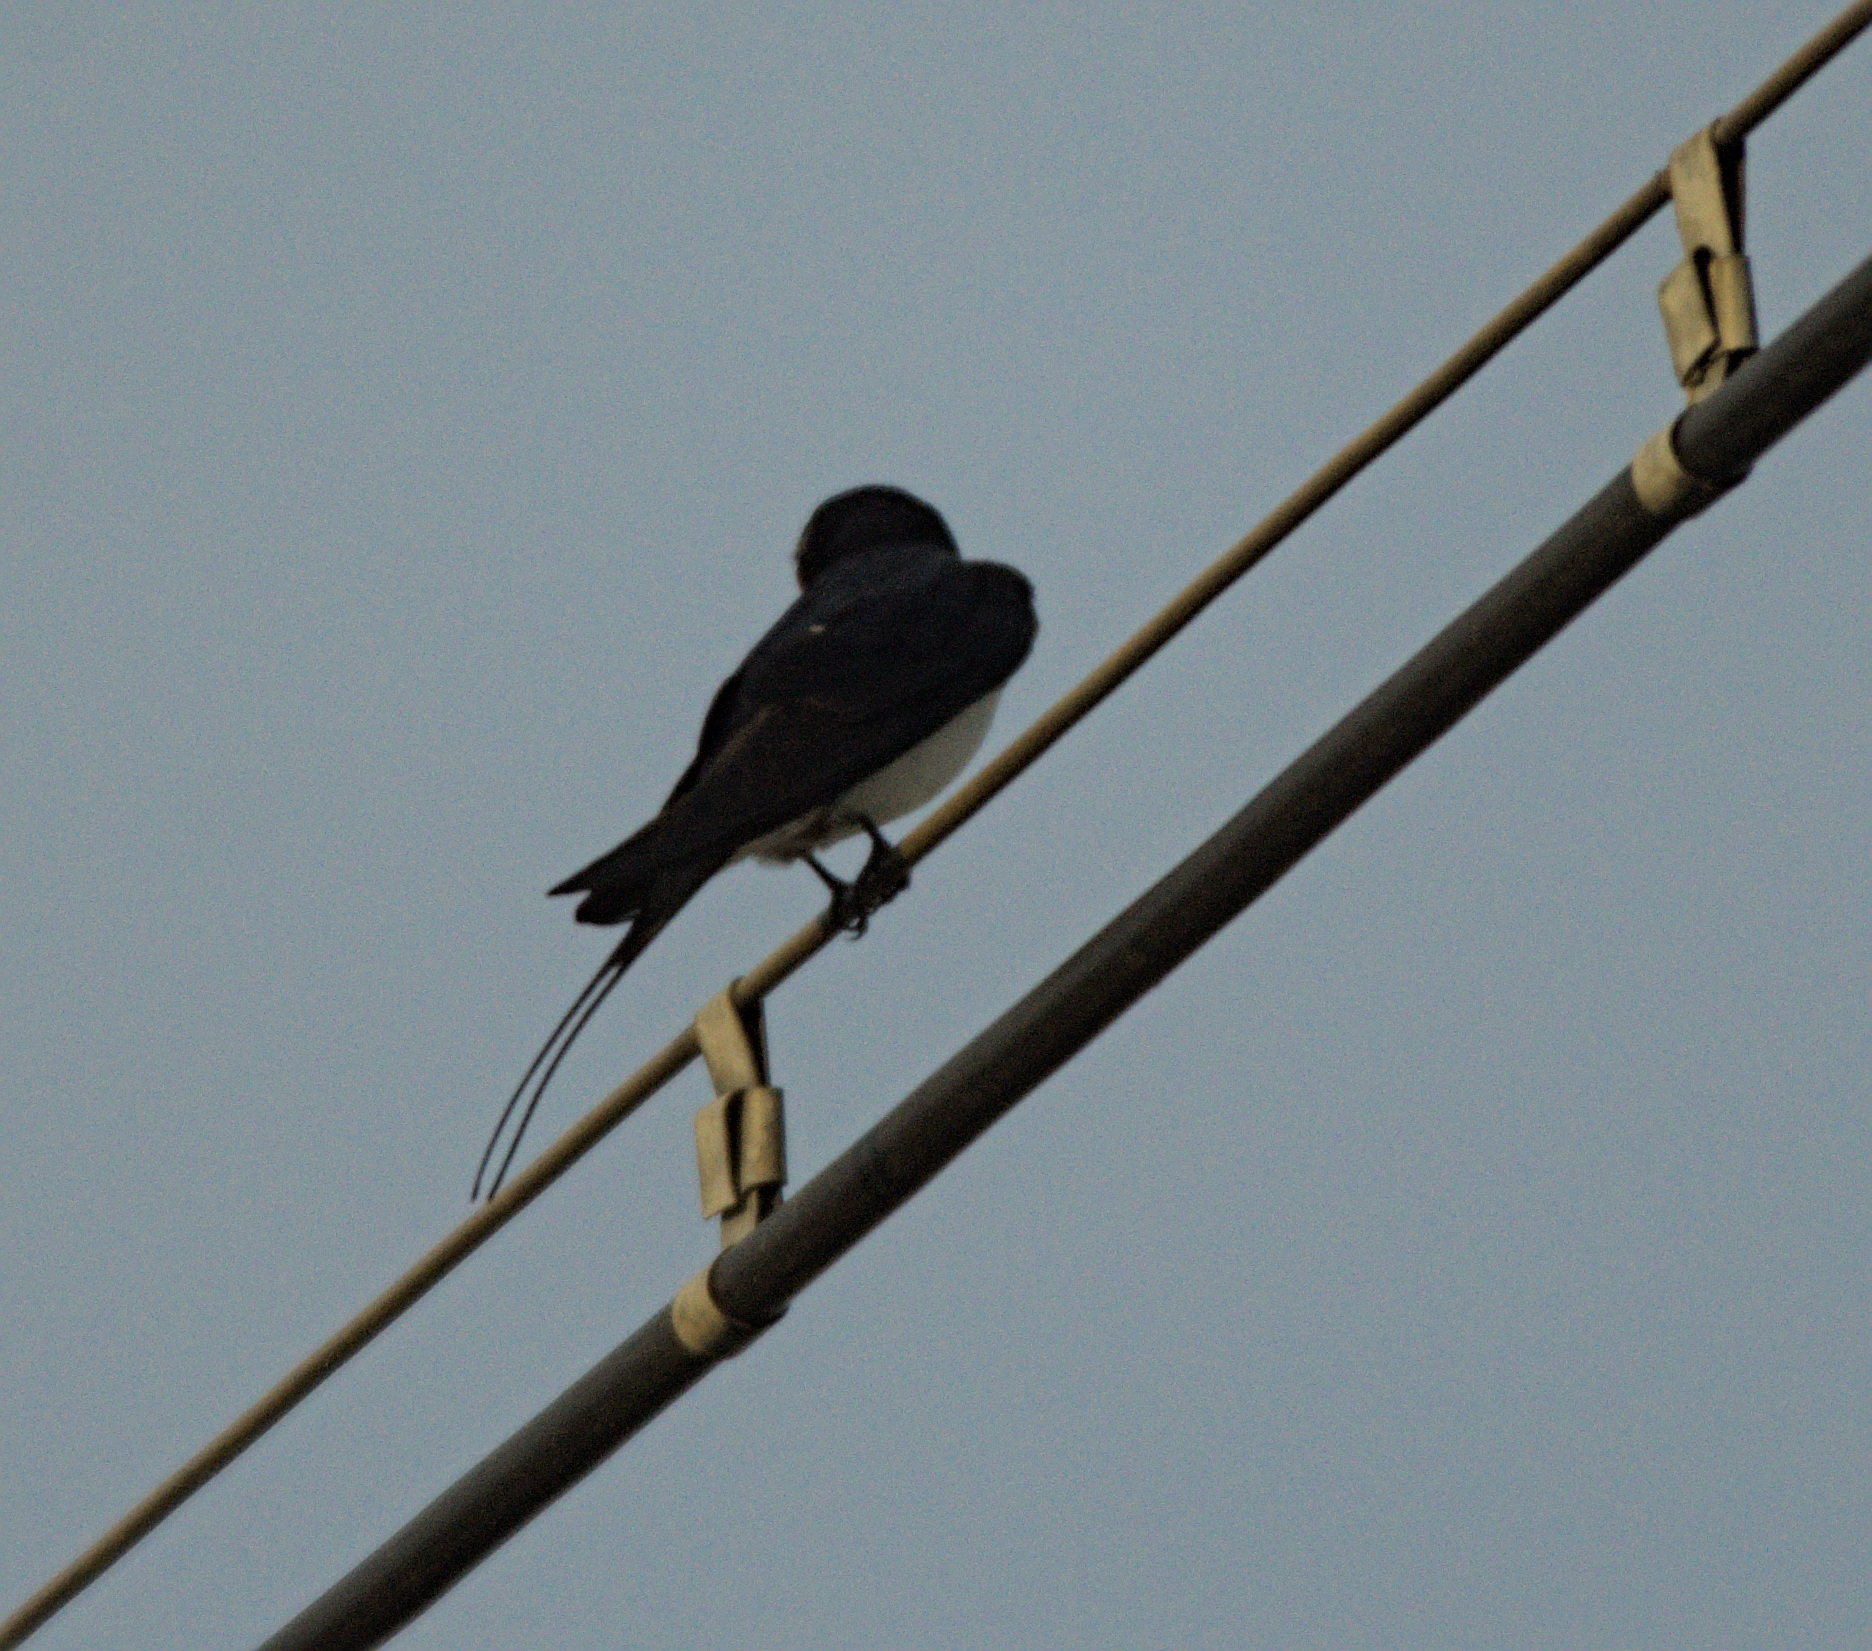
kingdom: Animalia
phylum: Chordata
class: Aves
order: Passeriformes
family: Hirundinidae
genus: Hirundo
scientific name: Hirundo rustica
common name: Barn swallow
